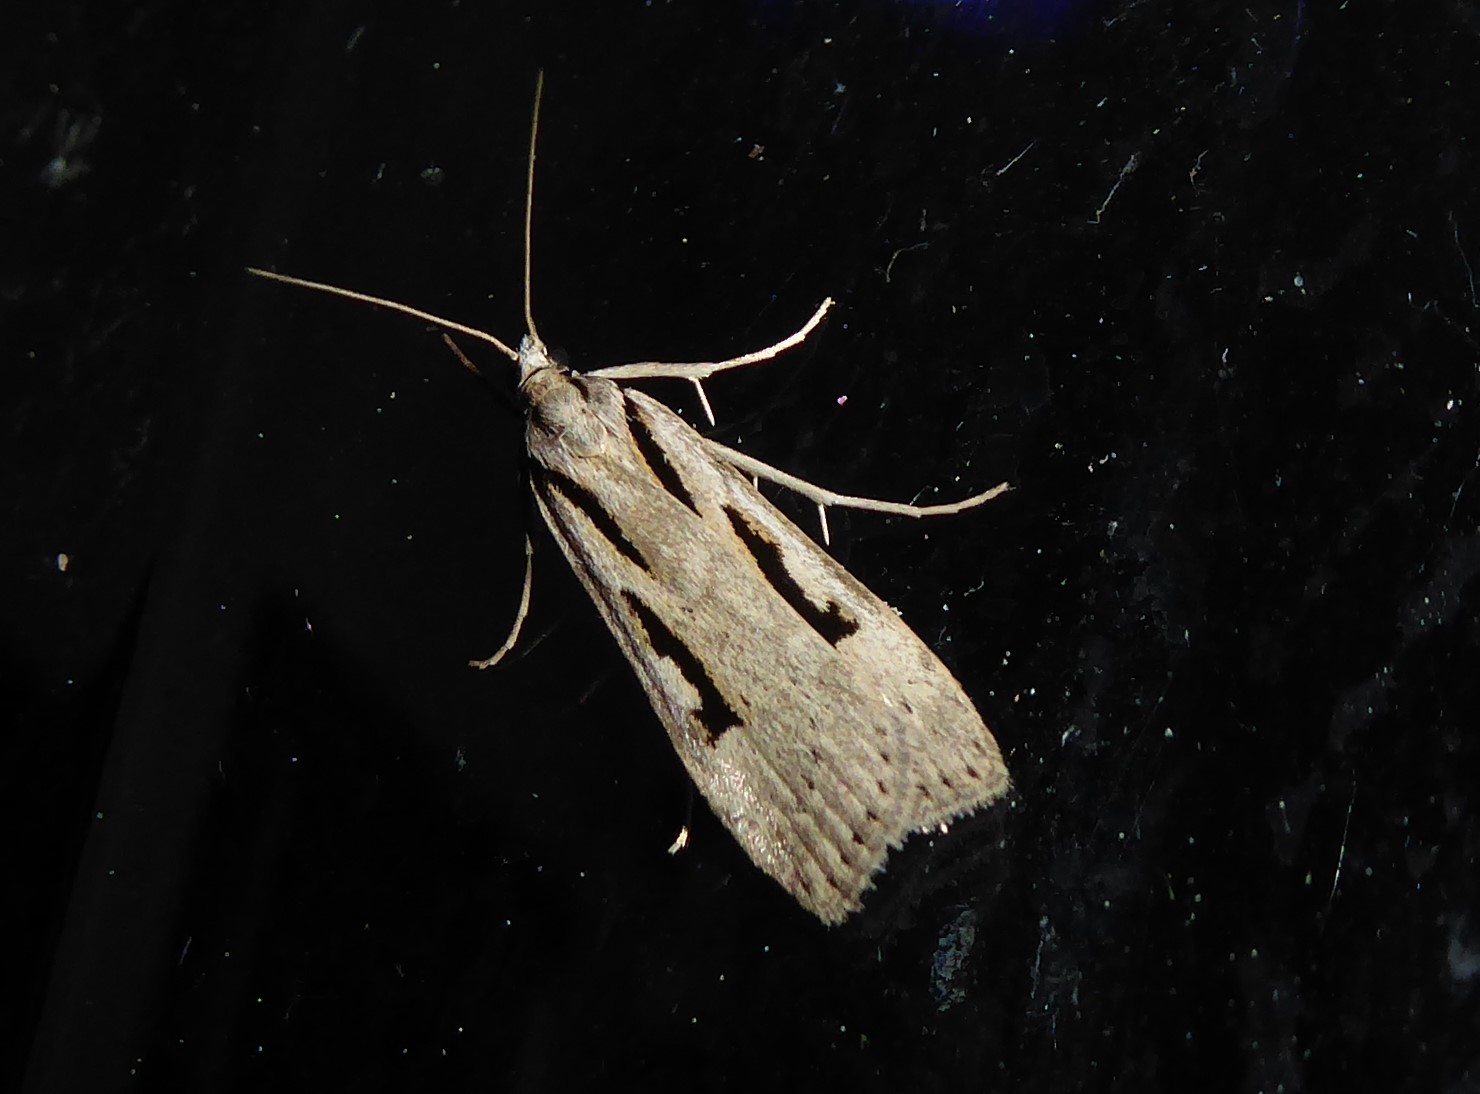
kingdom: Animalia
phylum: Arthropoda
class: Insecta
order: Lepidoptera
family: Crambidae
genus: Scoparia
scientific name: Scoparia rotuellus
